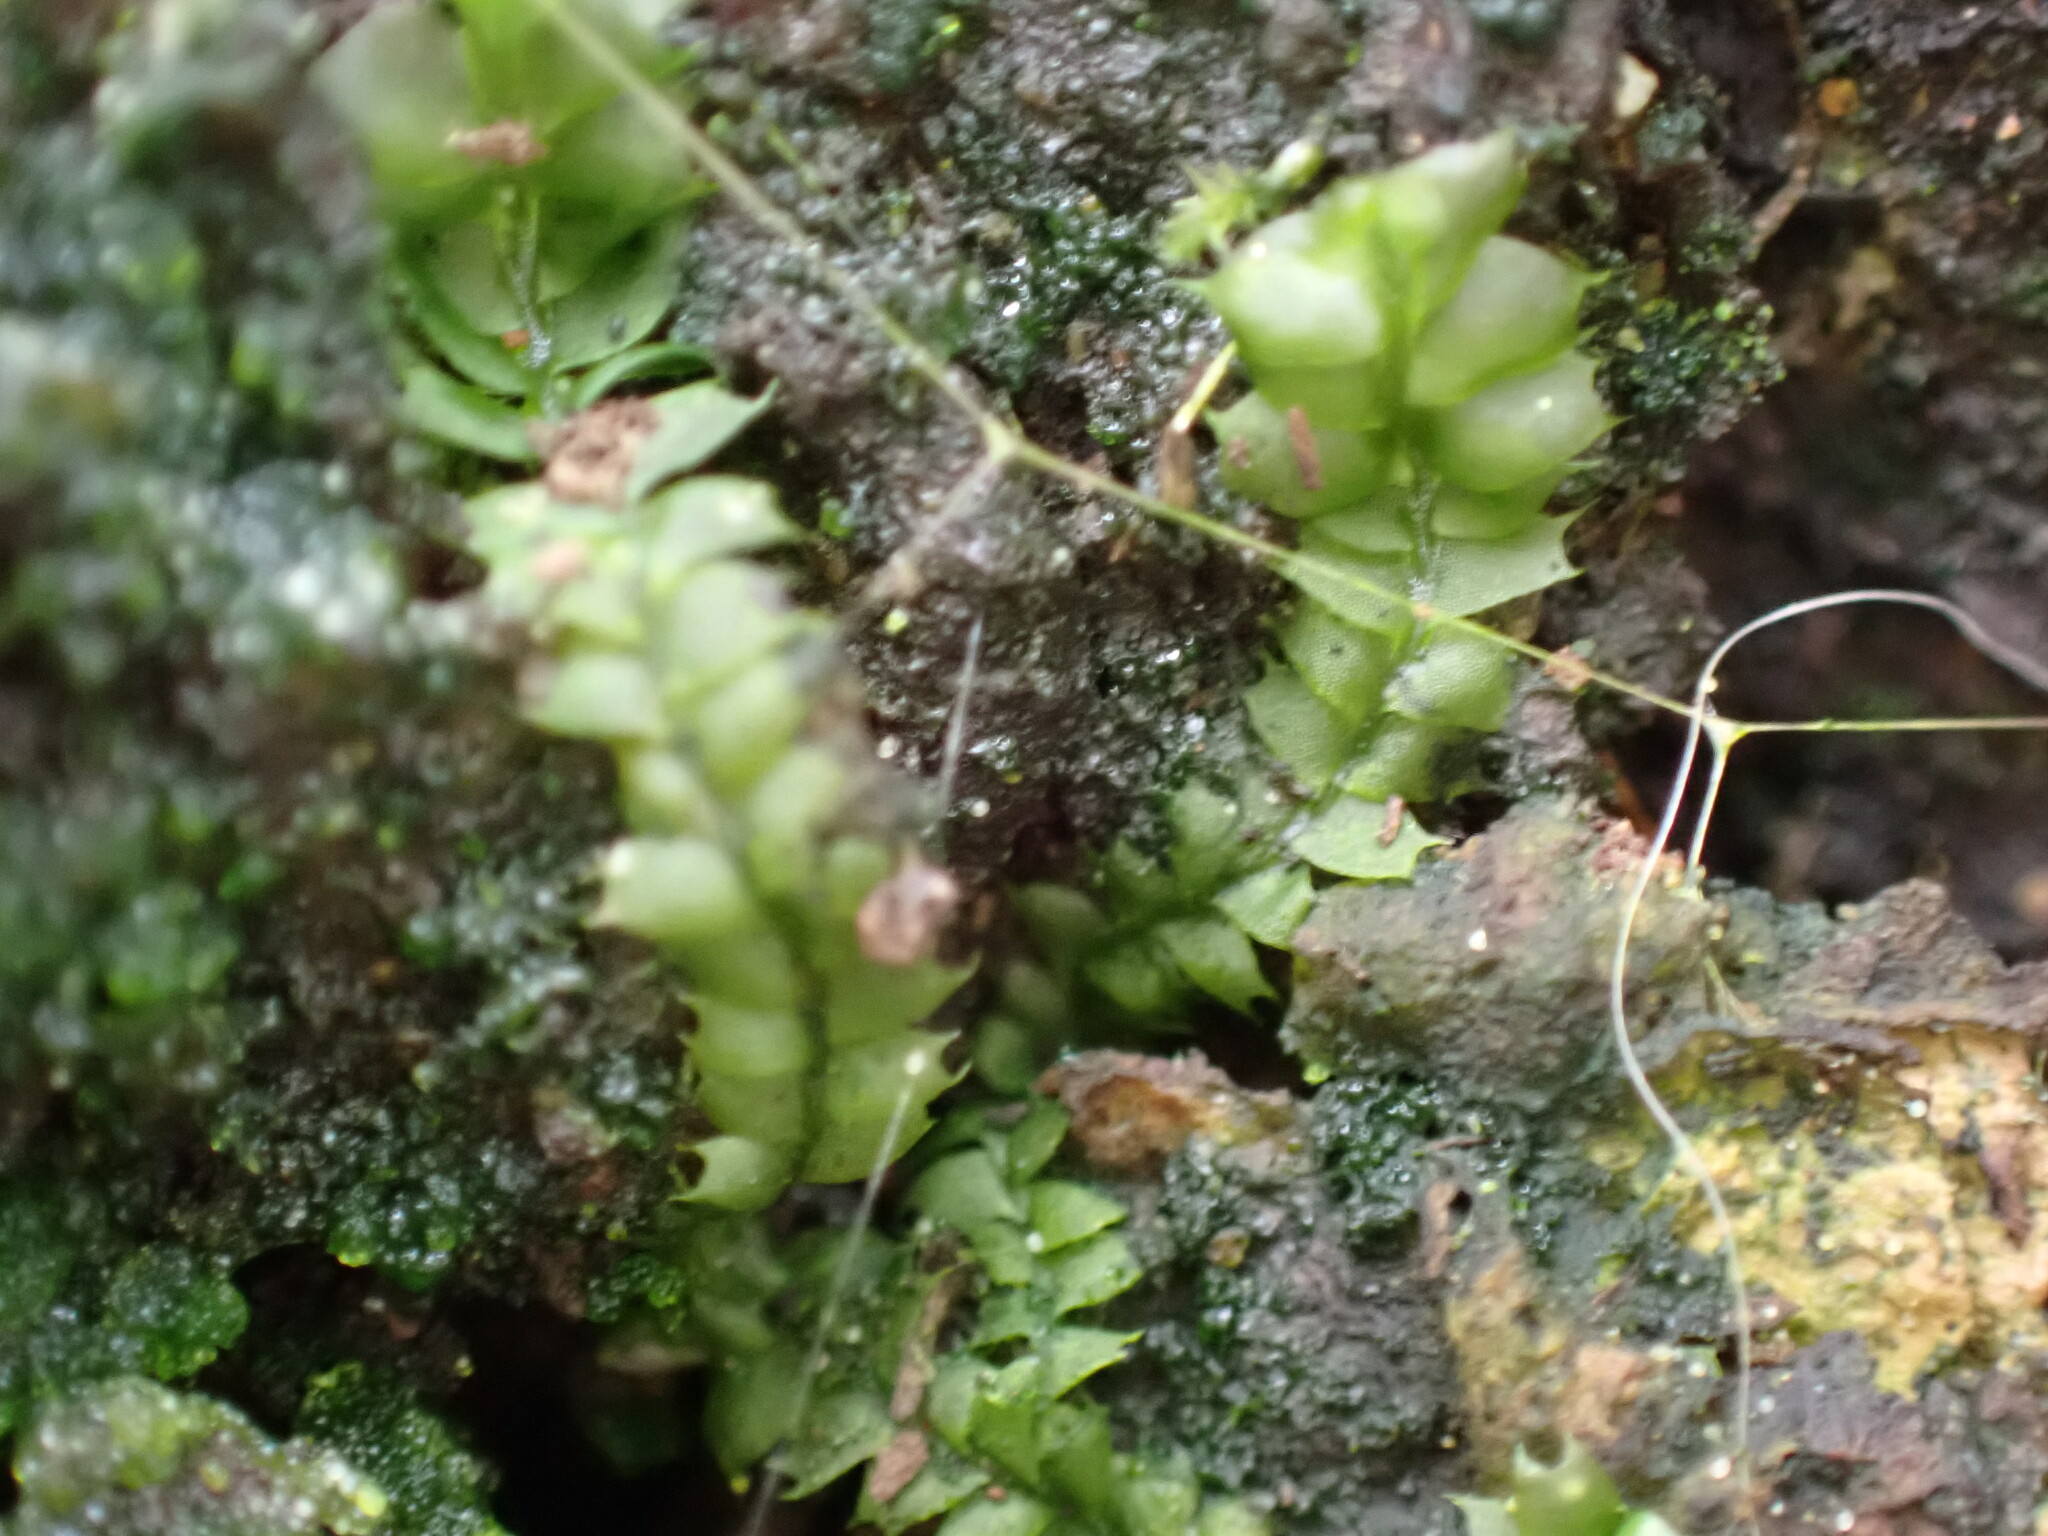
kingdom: Plantae
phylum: Marchantiophyta
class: Jungermanniopsida
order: Jungermanniales
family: Lophocoleaceae
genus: Lophocolea
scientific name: Lophocolea bidentata
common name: Bifid crestwort
